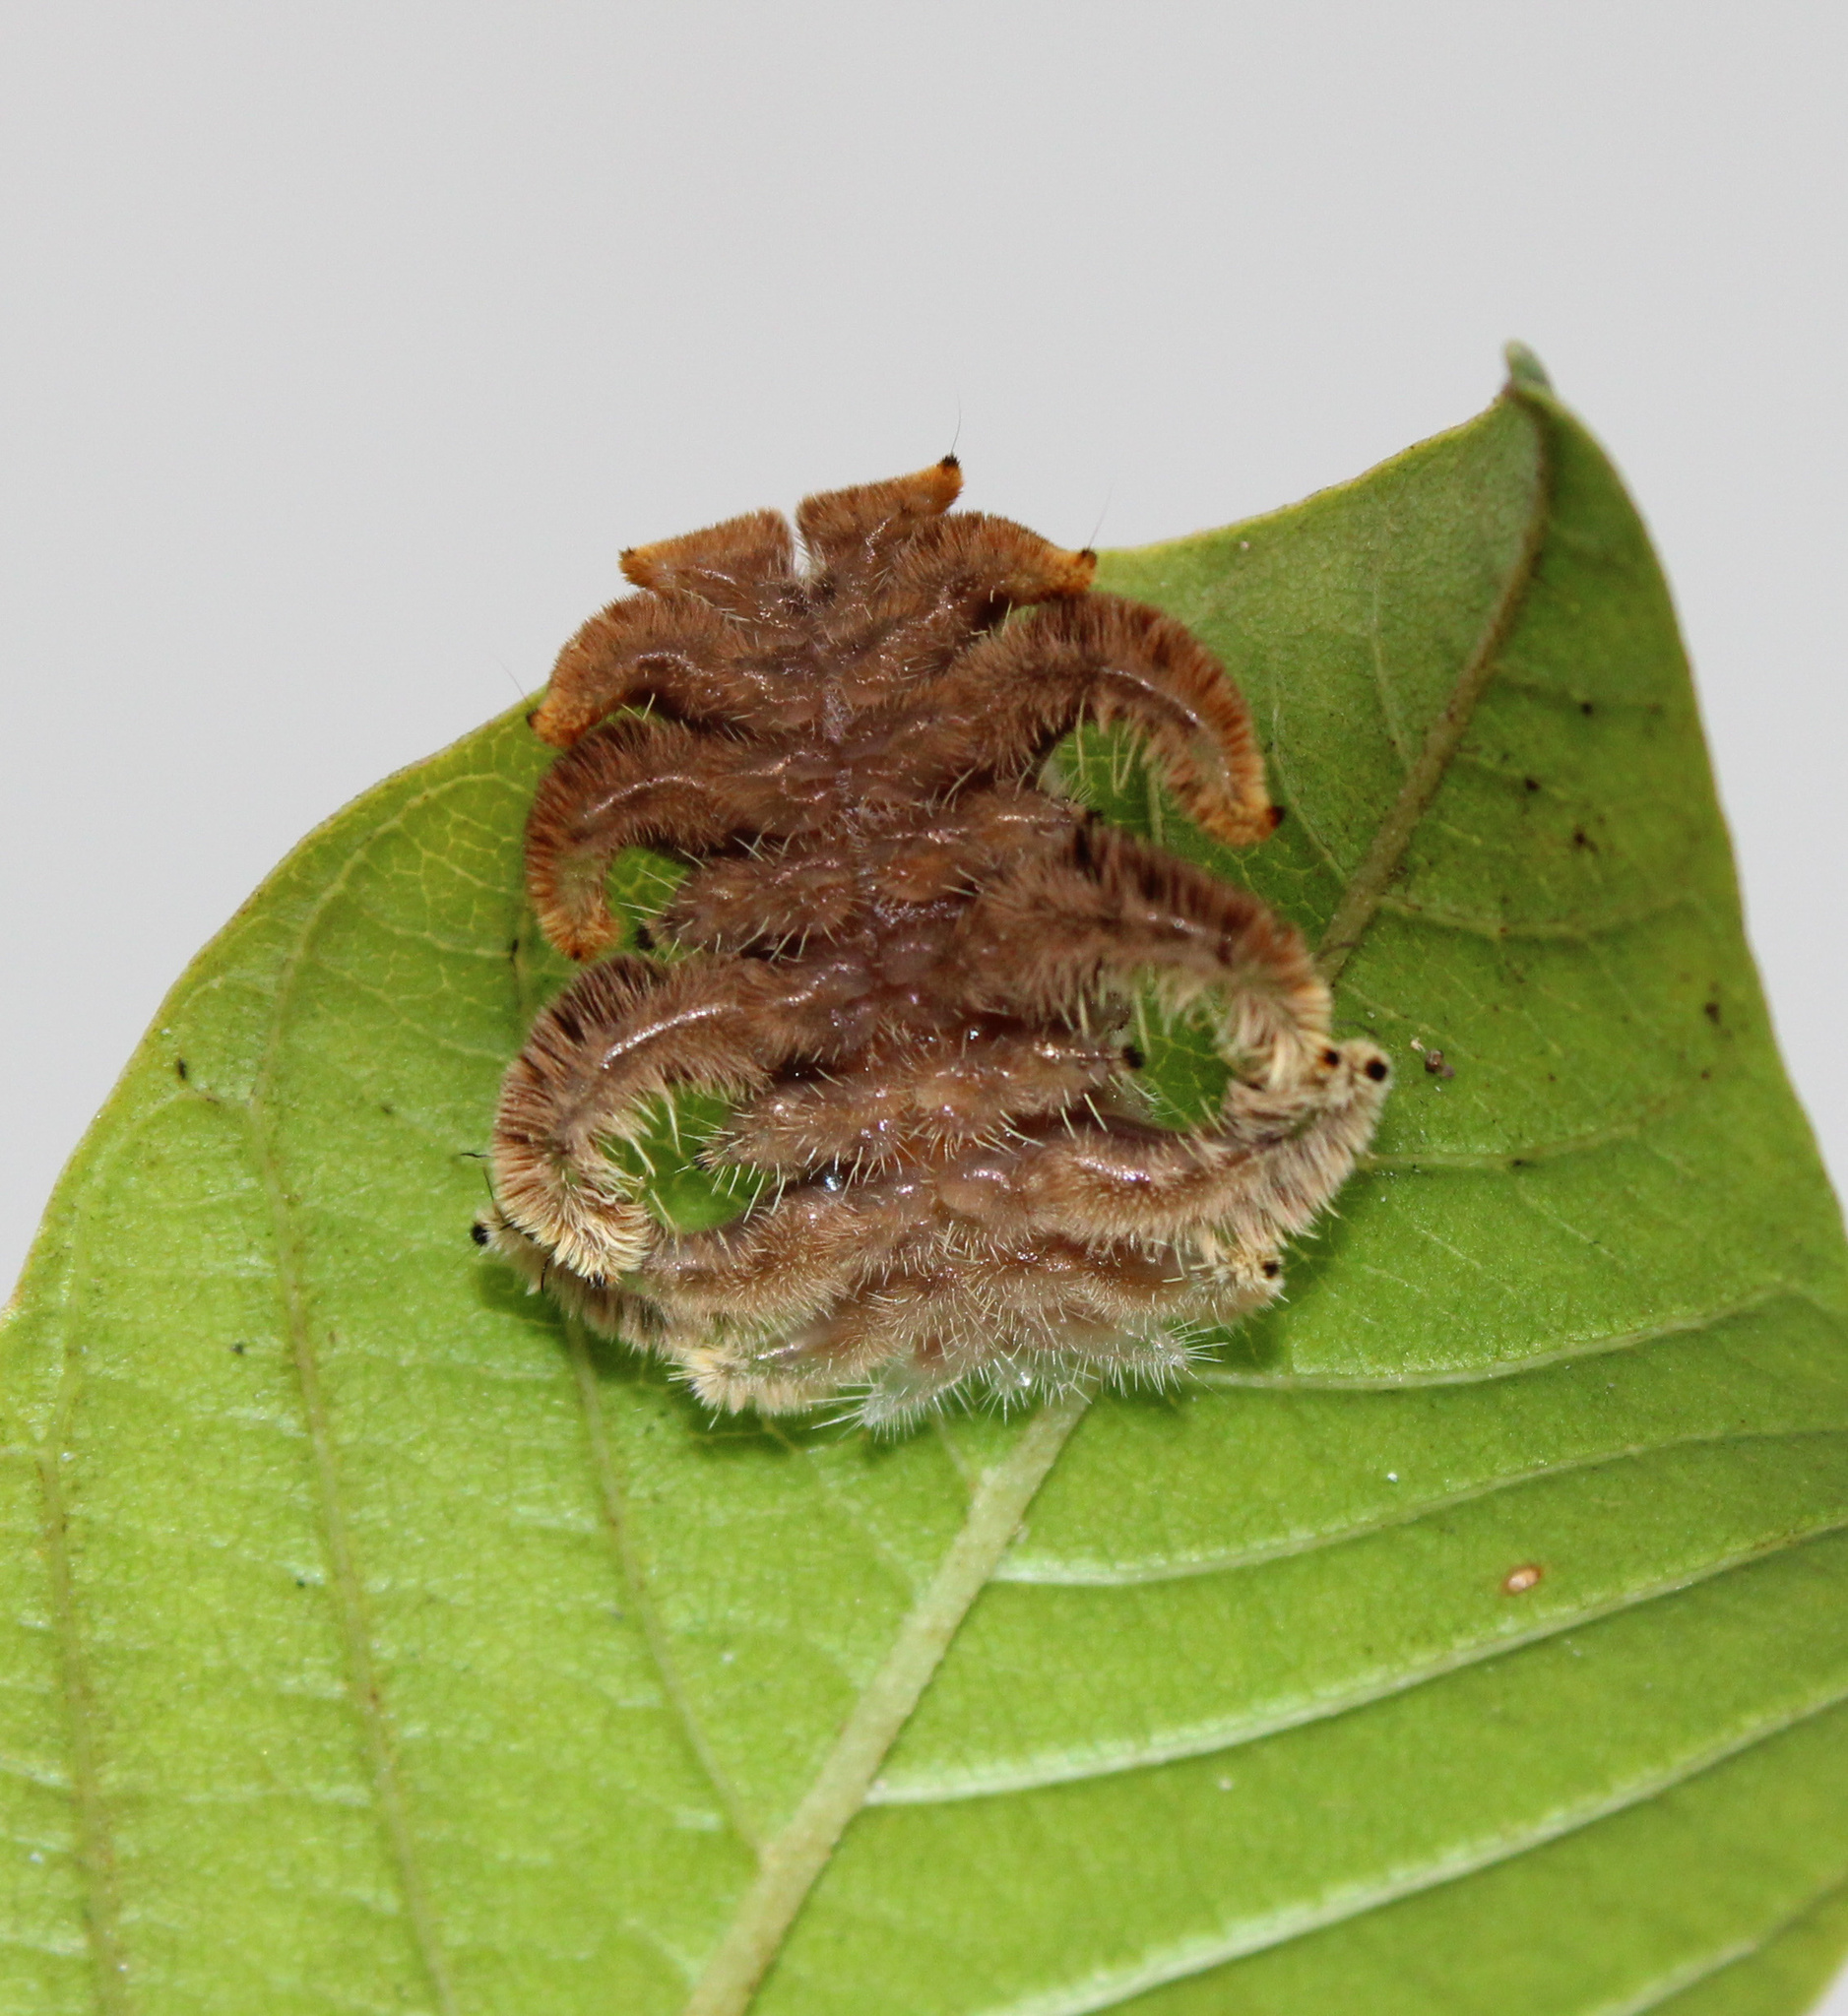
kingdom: Animalia
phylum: Arthropoda
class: Insecta
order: Lepidoptera
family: Limacodidae
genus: Phobetron
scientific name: Phobetron pithecium
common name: Hag moth
